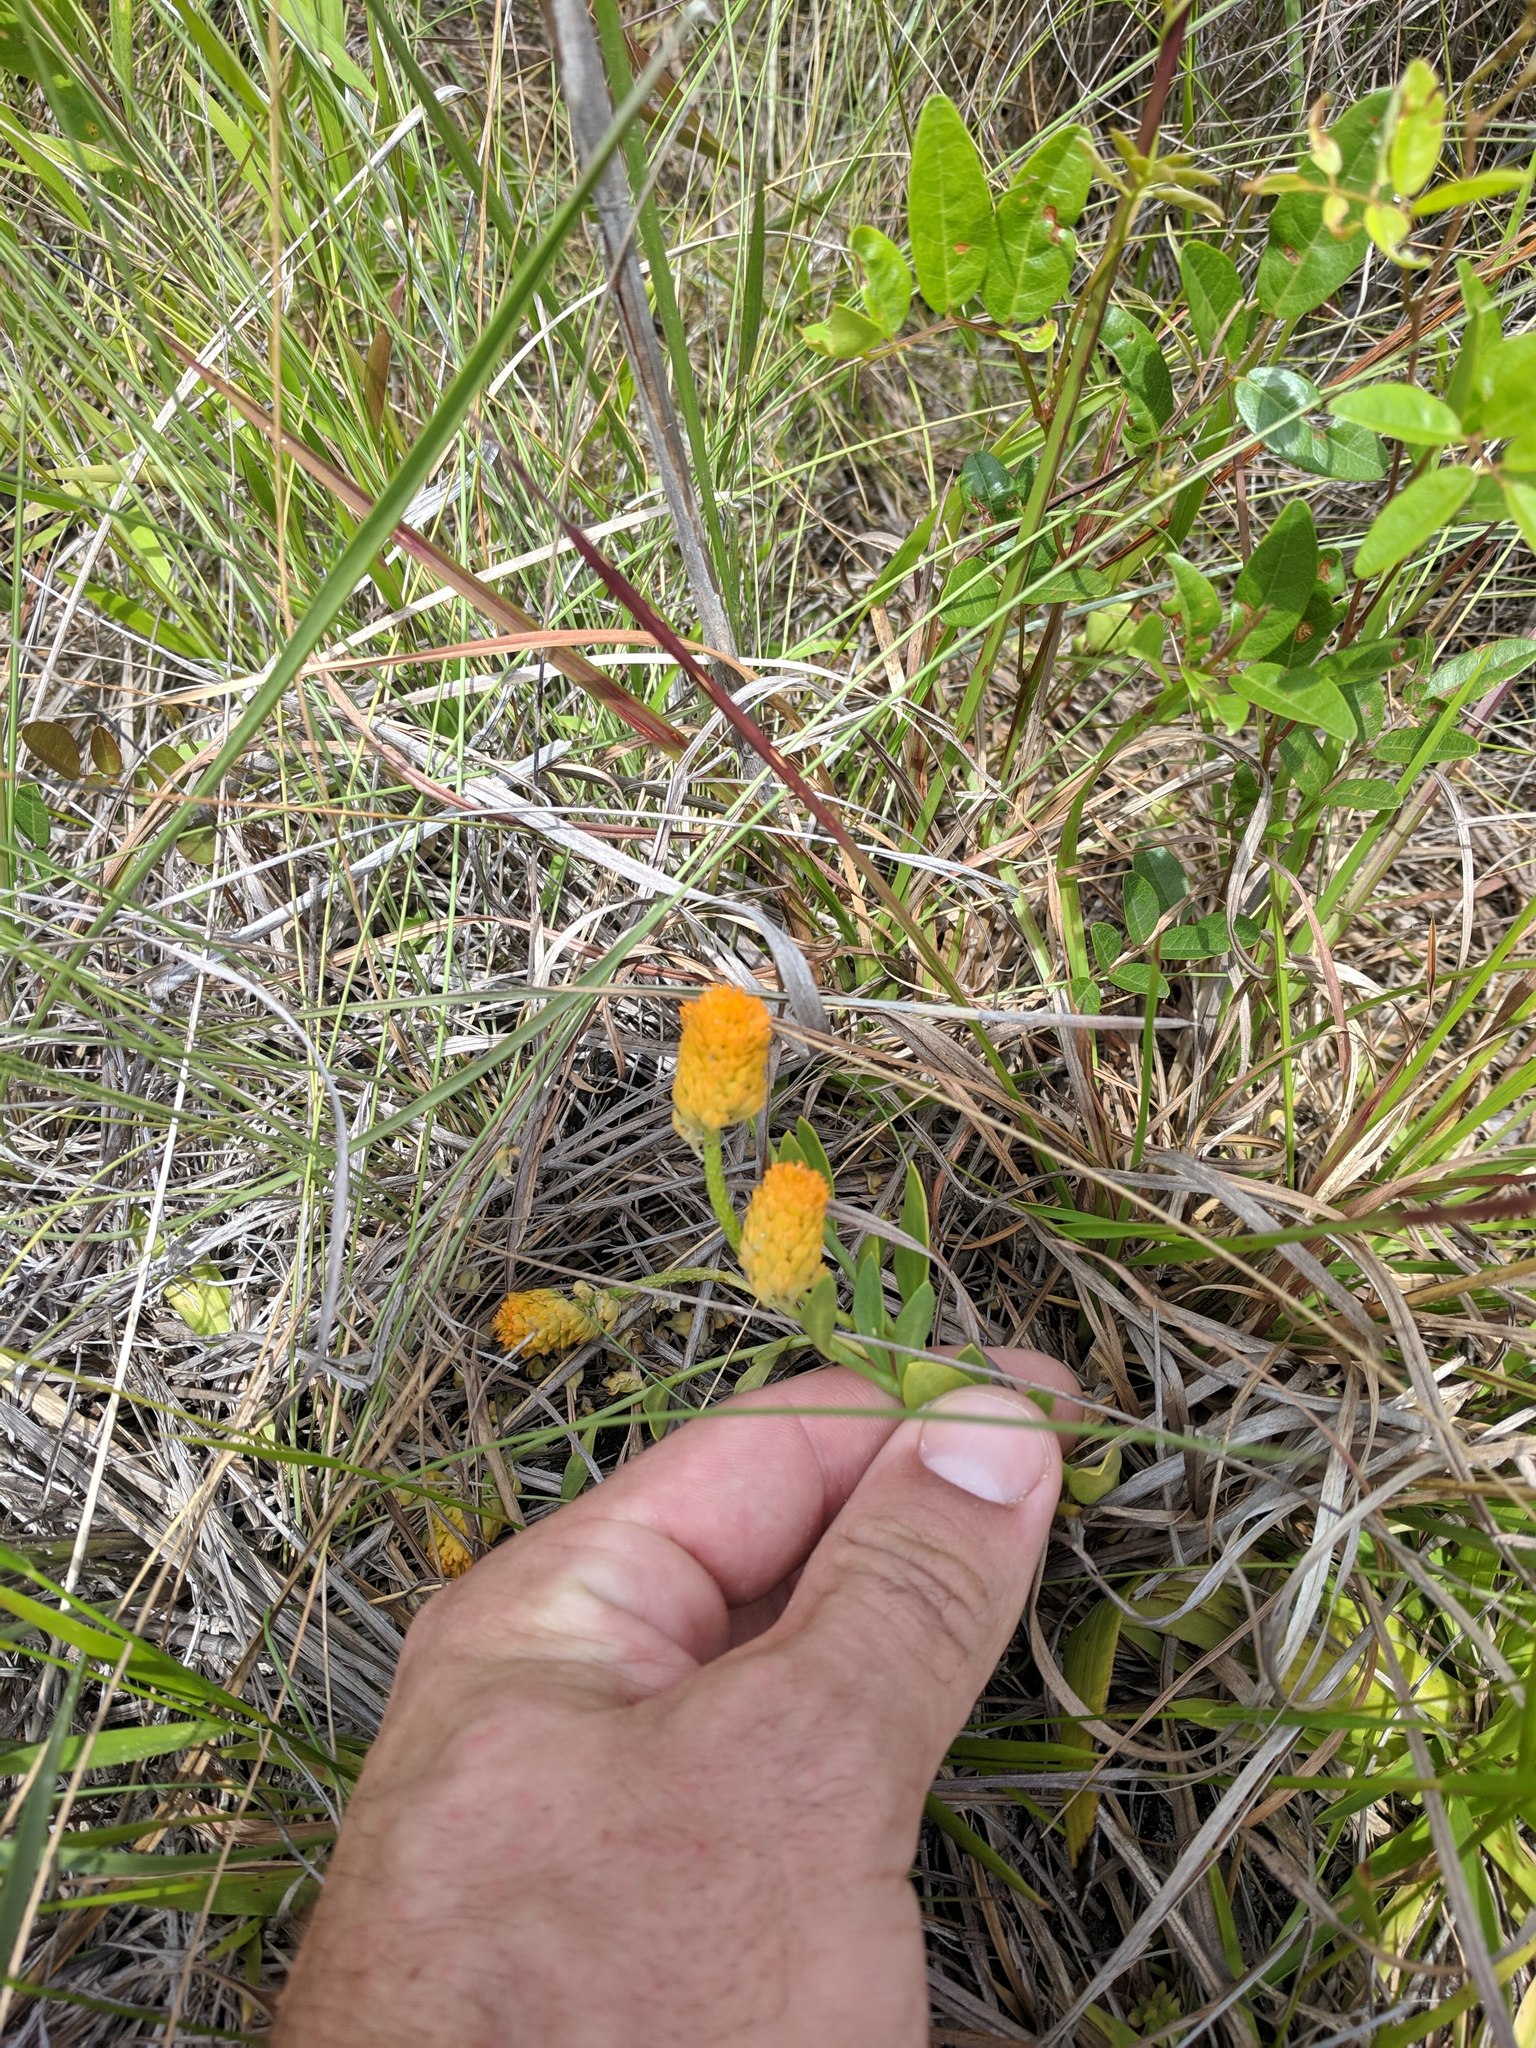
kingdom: Plantae
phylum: Tracheophyta
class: Magnoliopsida
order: Fabales
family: Polygalaceae
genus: Polygala
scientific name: Polygala lutea
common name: Orange milkwort
